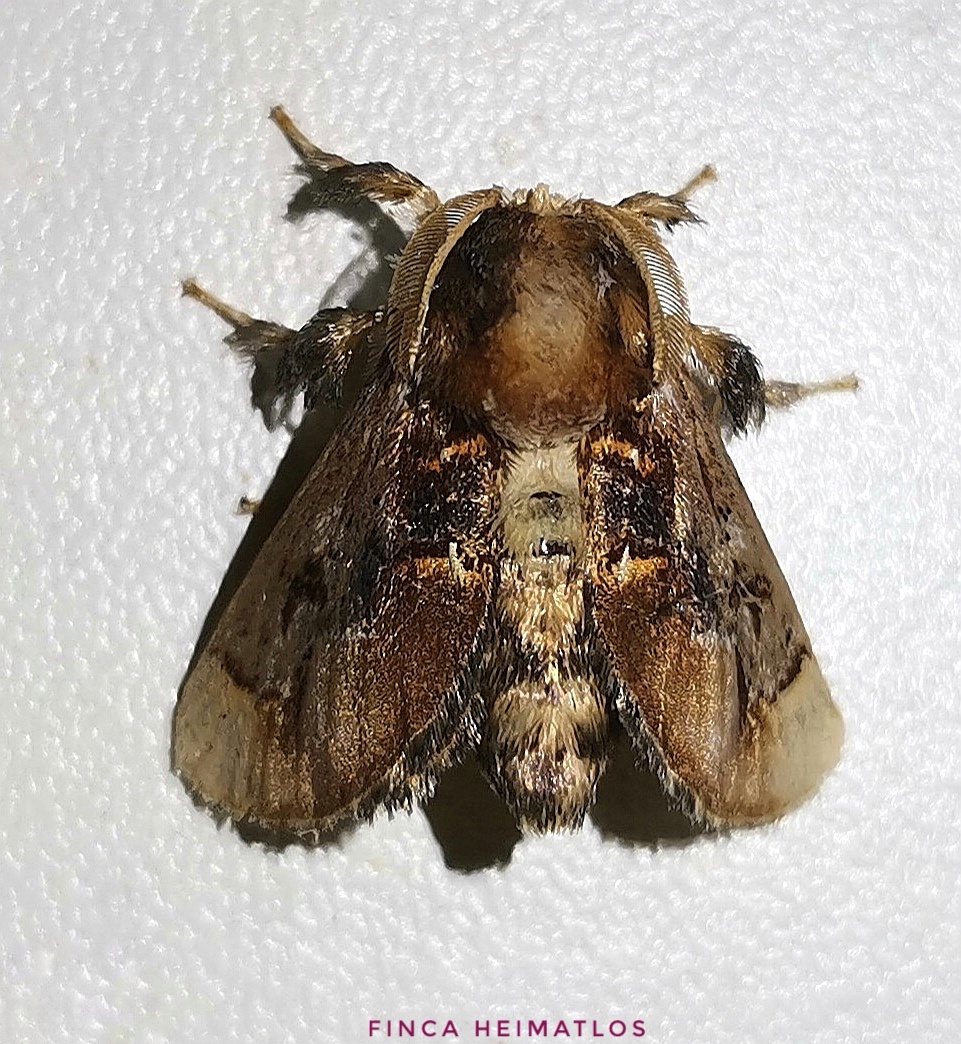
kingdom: Animalia
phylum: Arthropoda
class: Insecta
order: Lepidoptera
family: Limacodidae
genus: Epiperola
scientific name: Epiperola perornata
